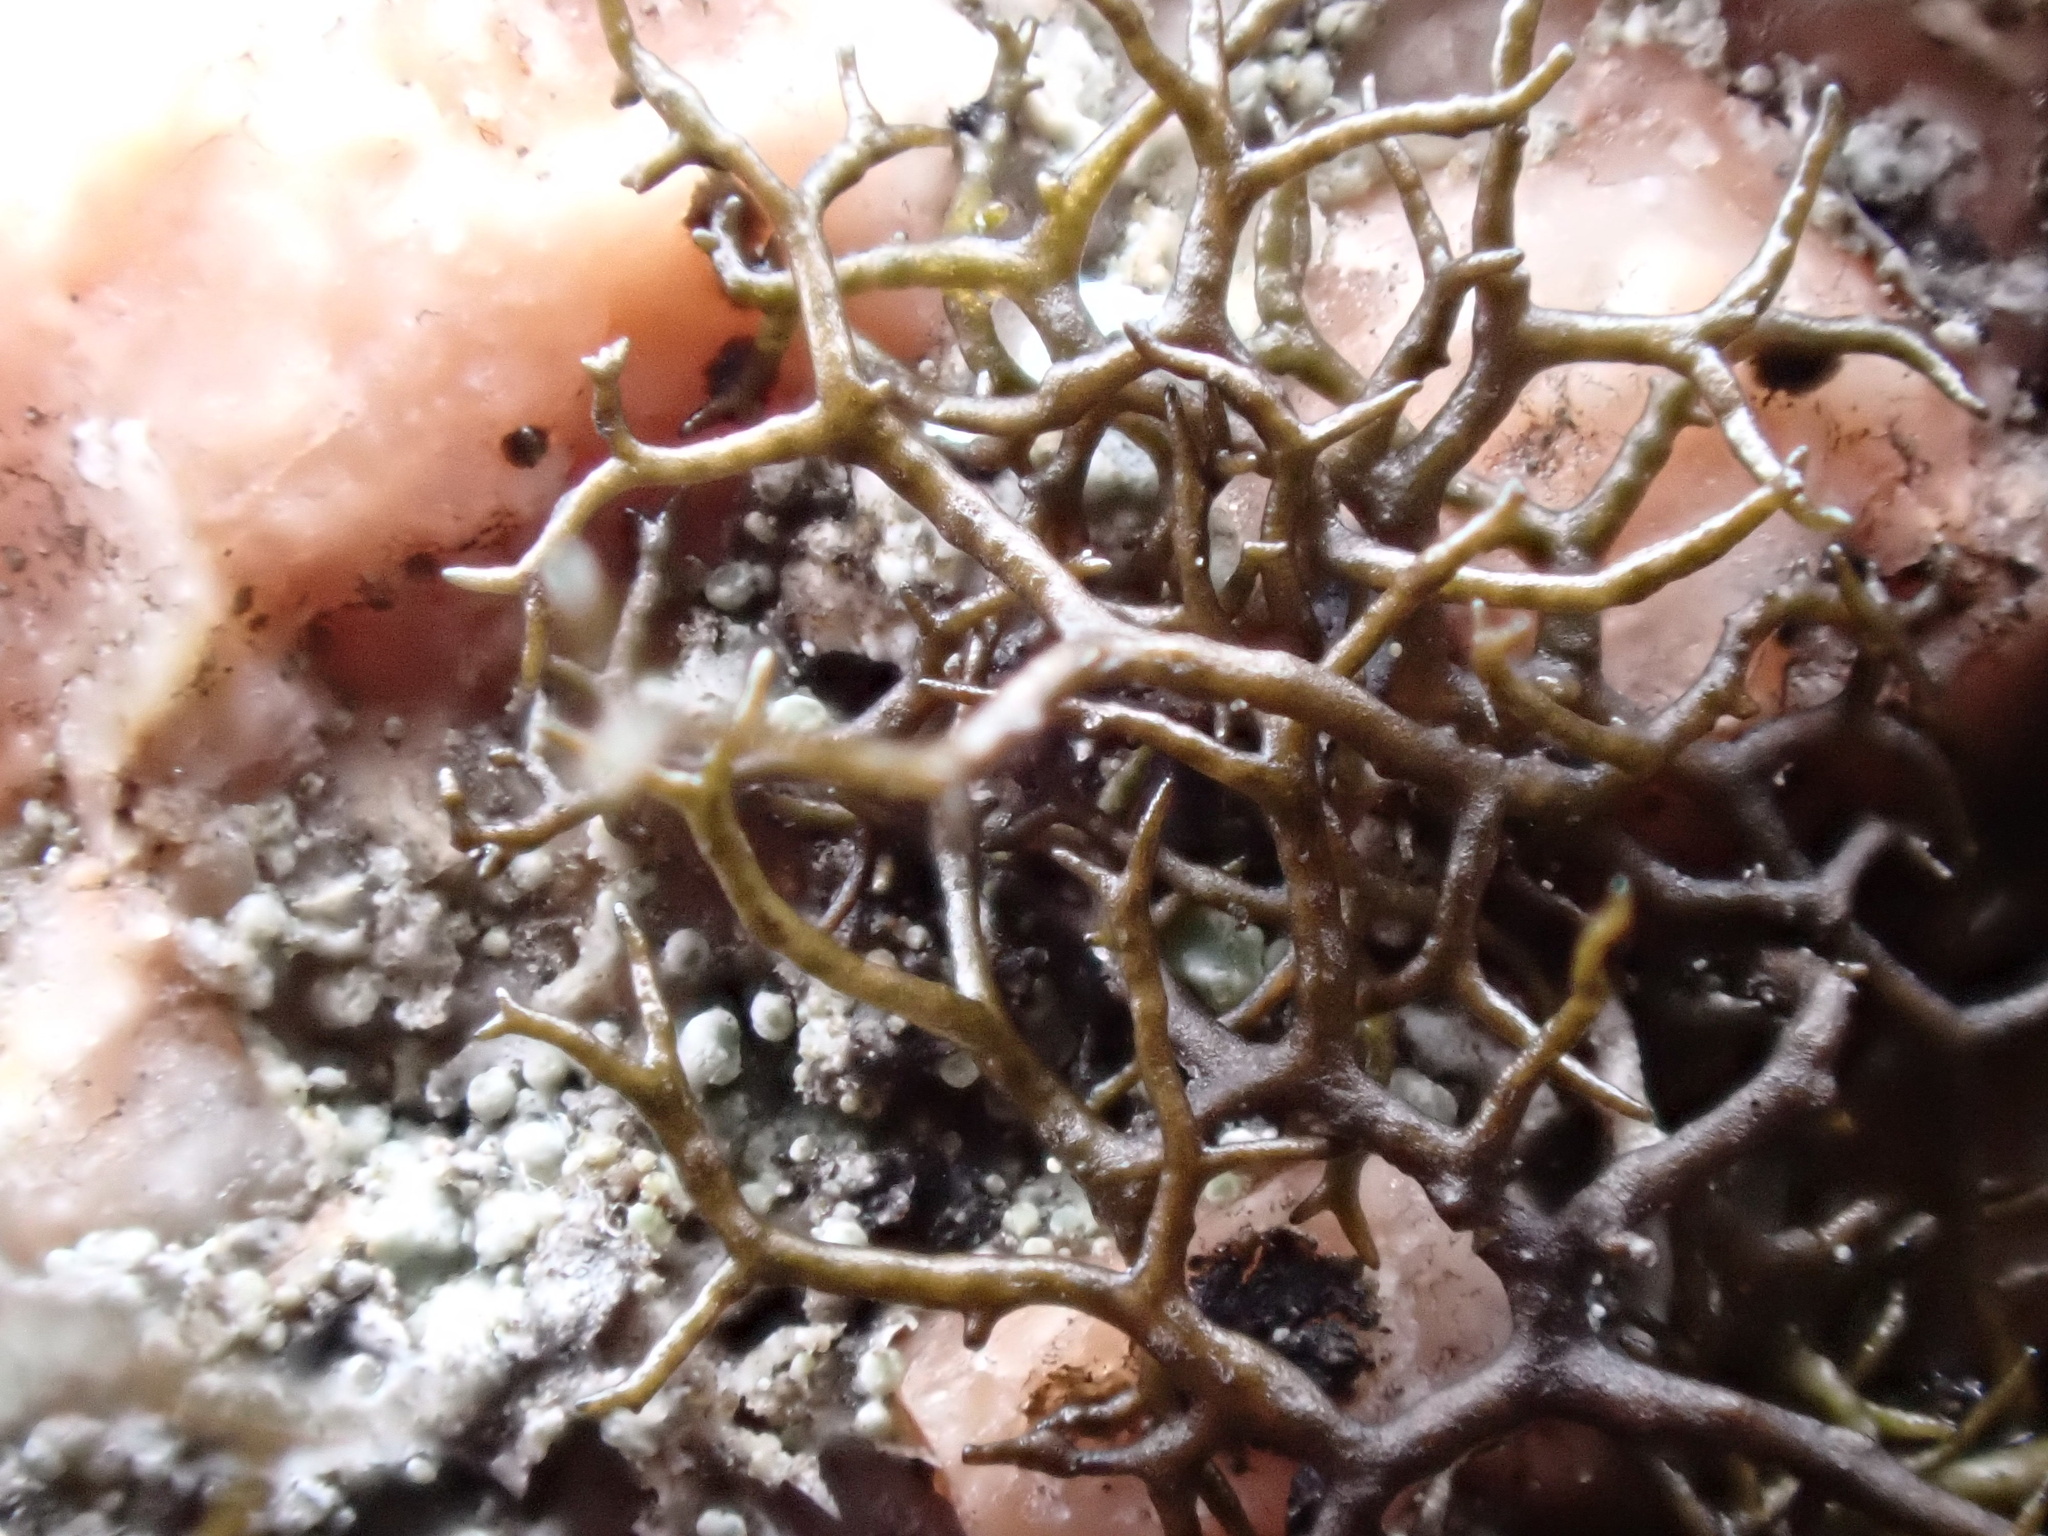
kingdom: Fungi
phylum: Ascomycota
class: Lecanoromycetes
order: Lecanorales
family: Parmeliaceae
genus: Pseudephebe
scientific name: Pseudephebe pubescens
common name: Fine rockwool lichen
